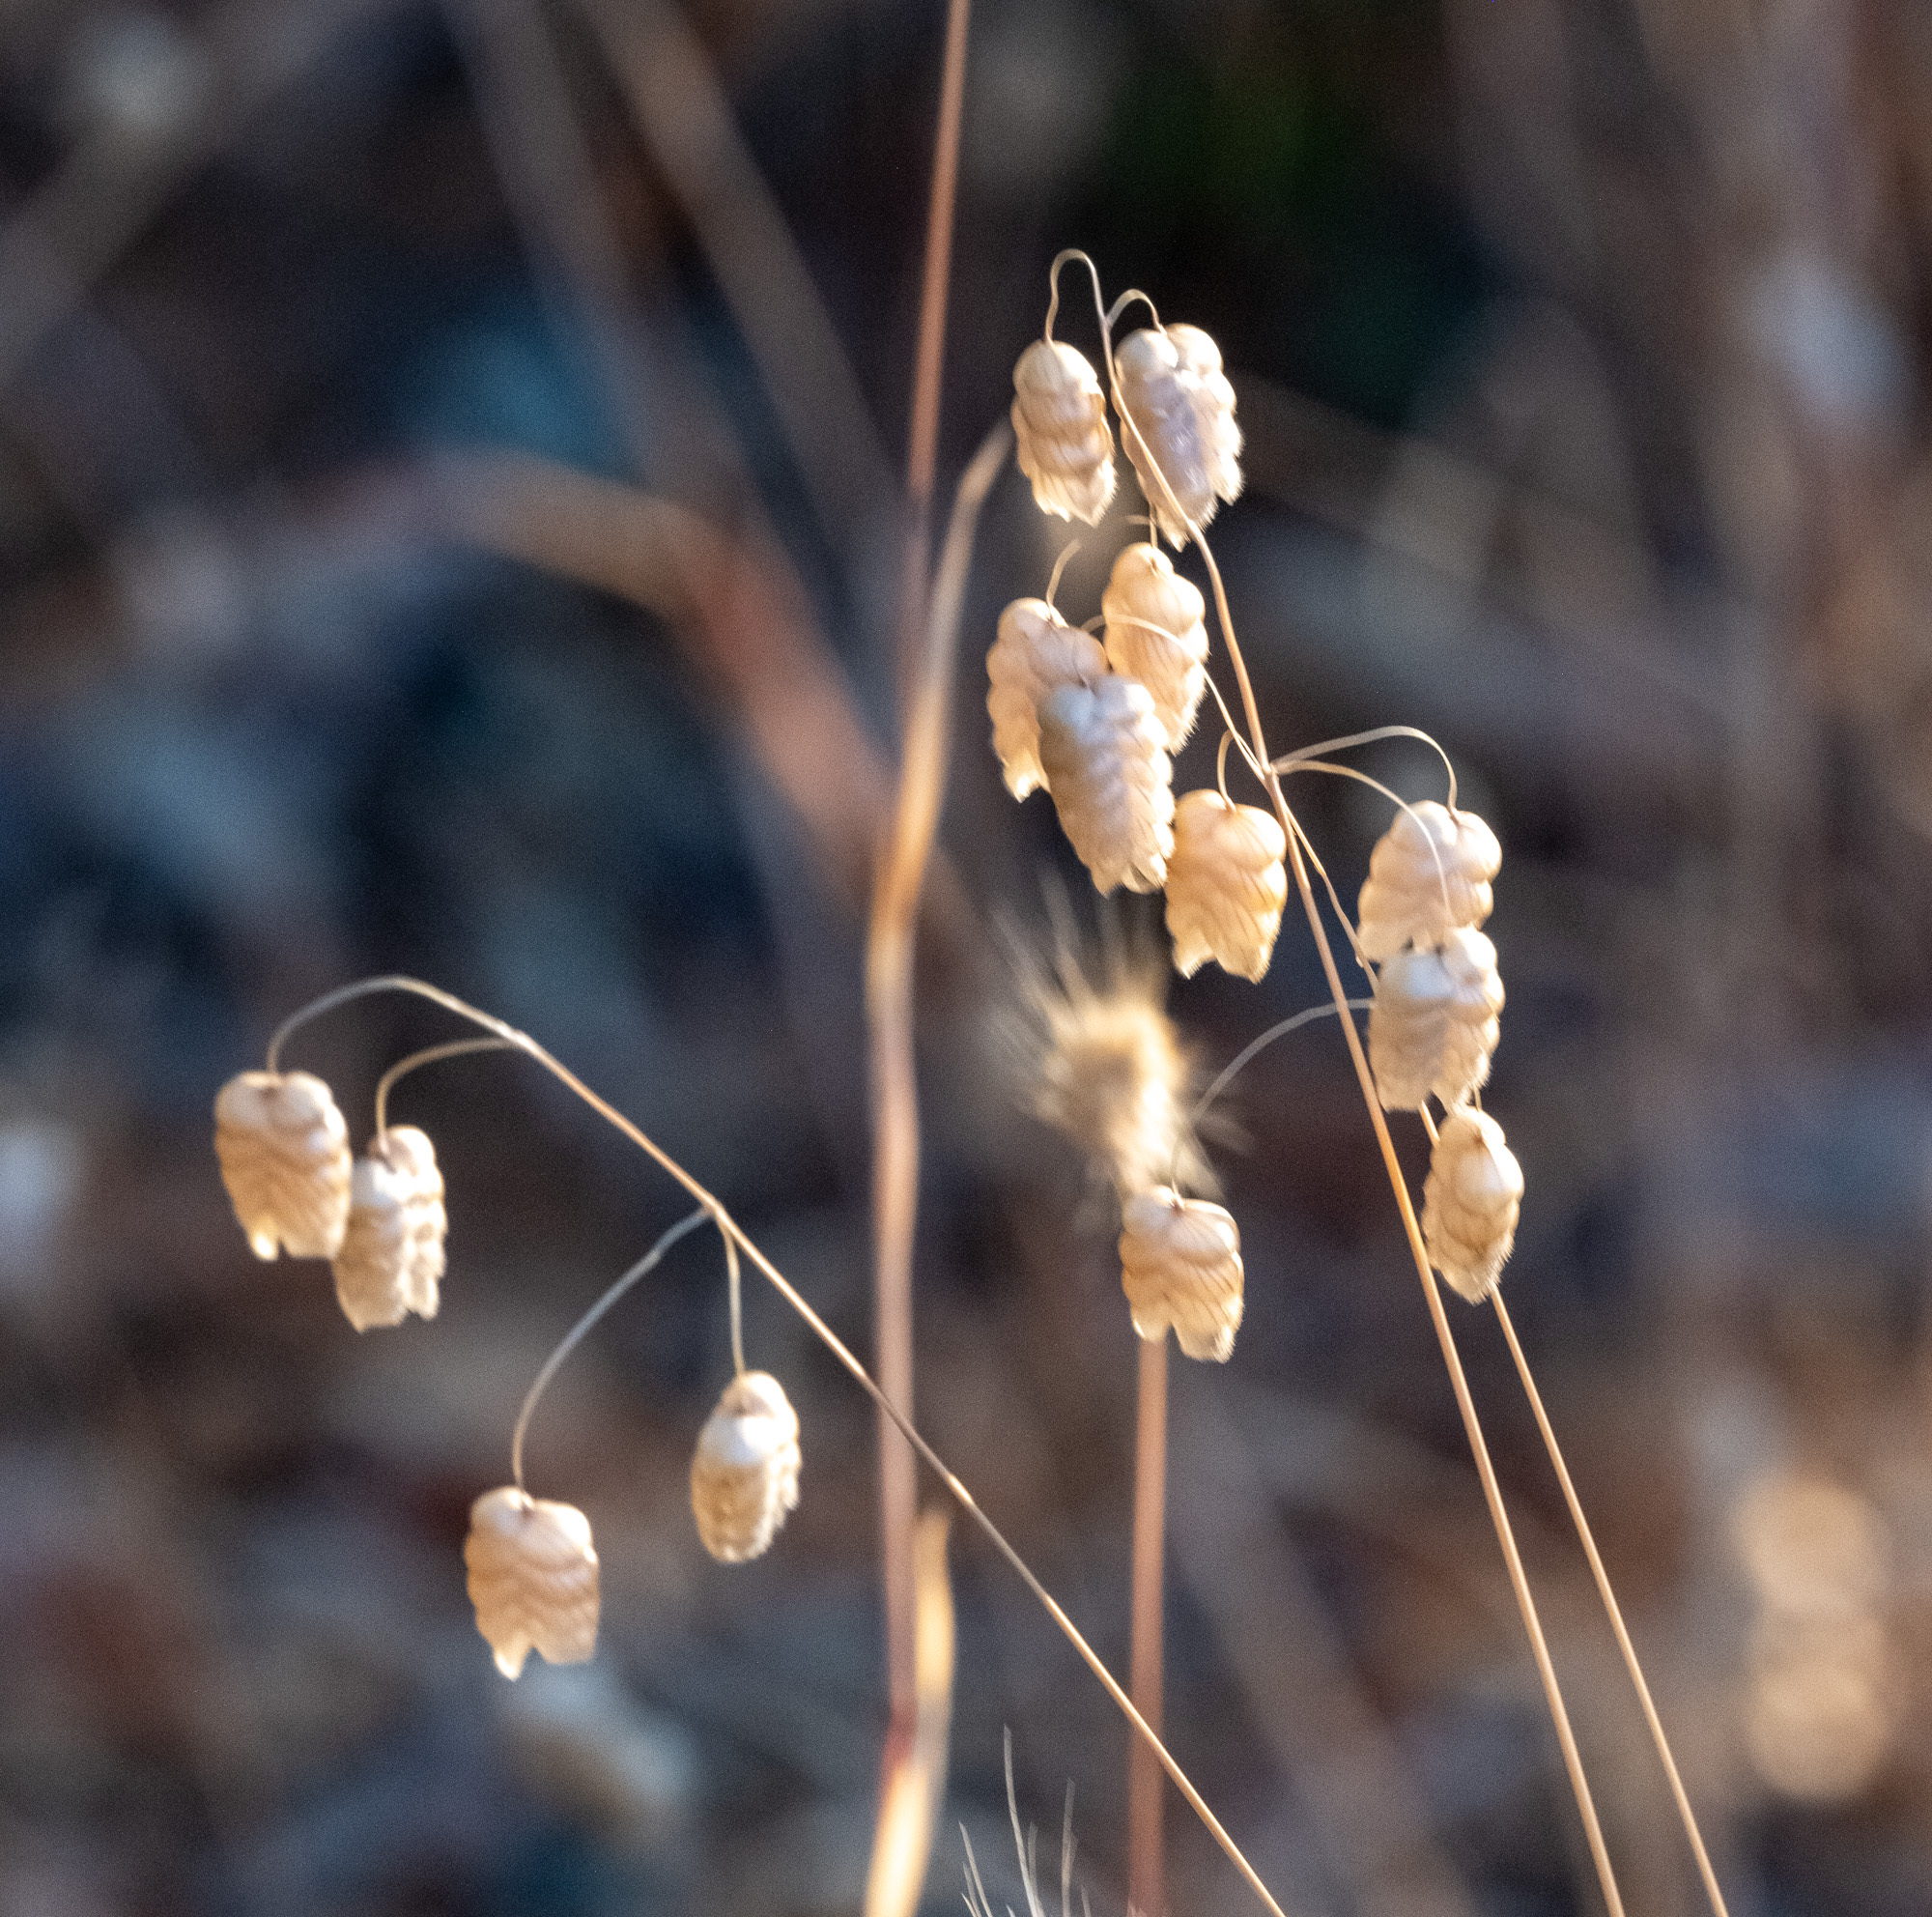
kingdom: Plantae
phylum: Tracheophyta
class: Liliopsida
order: Poales
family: Poaceae
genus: Briza
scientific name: Briza maxima
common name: Big quakinggrass
